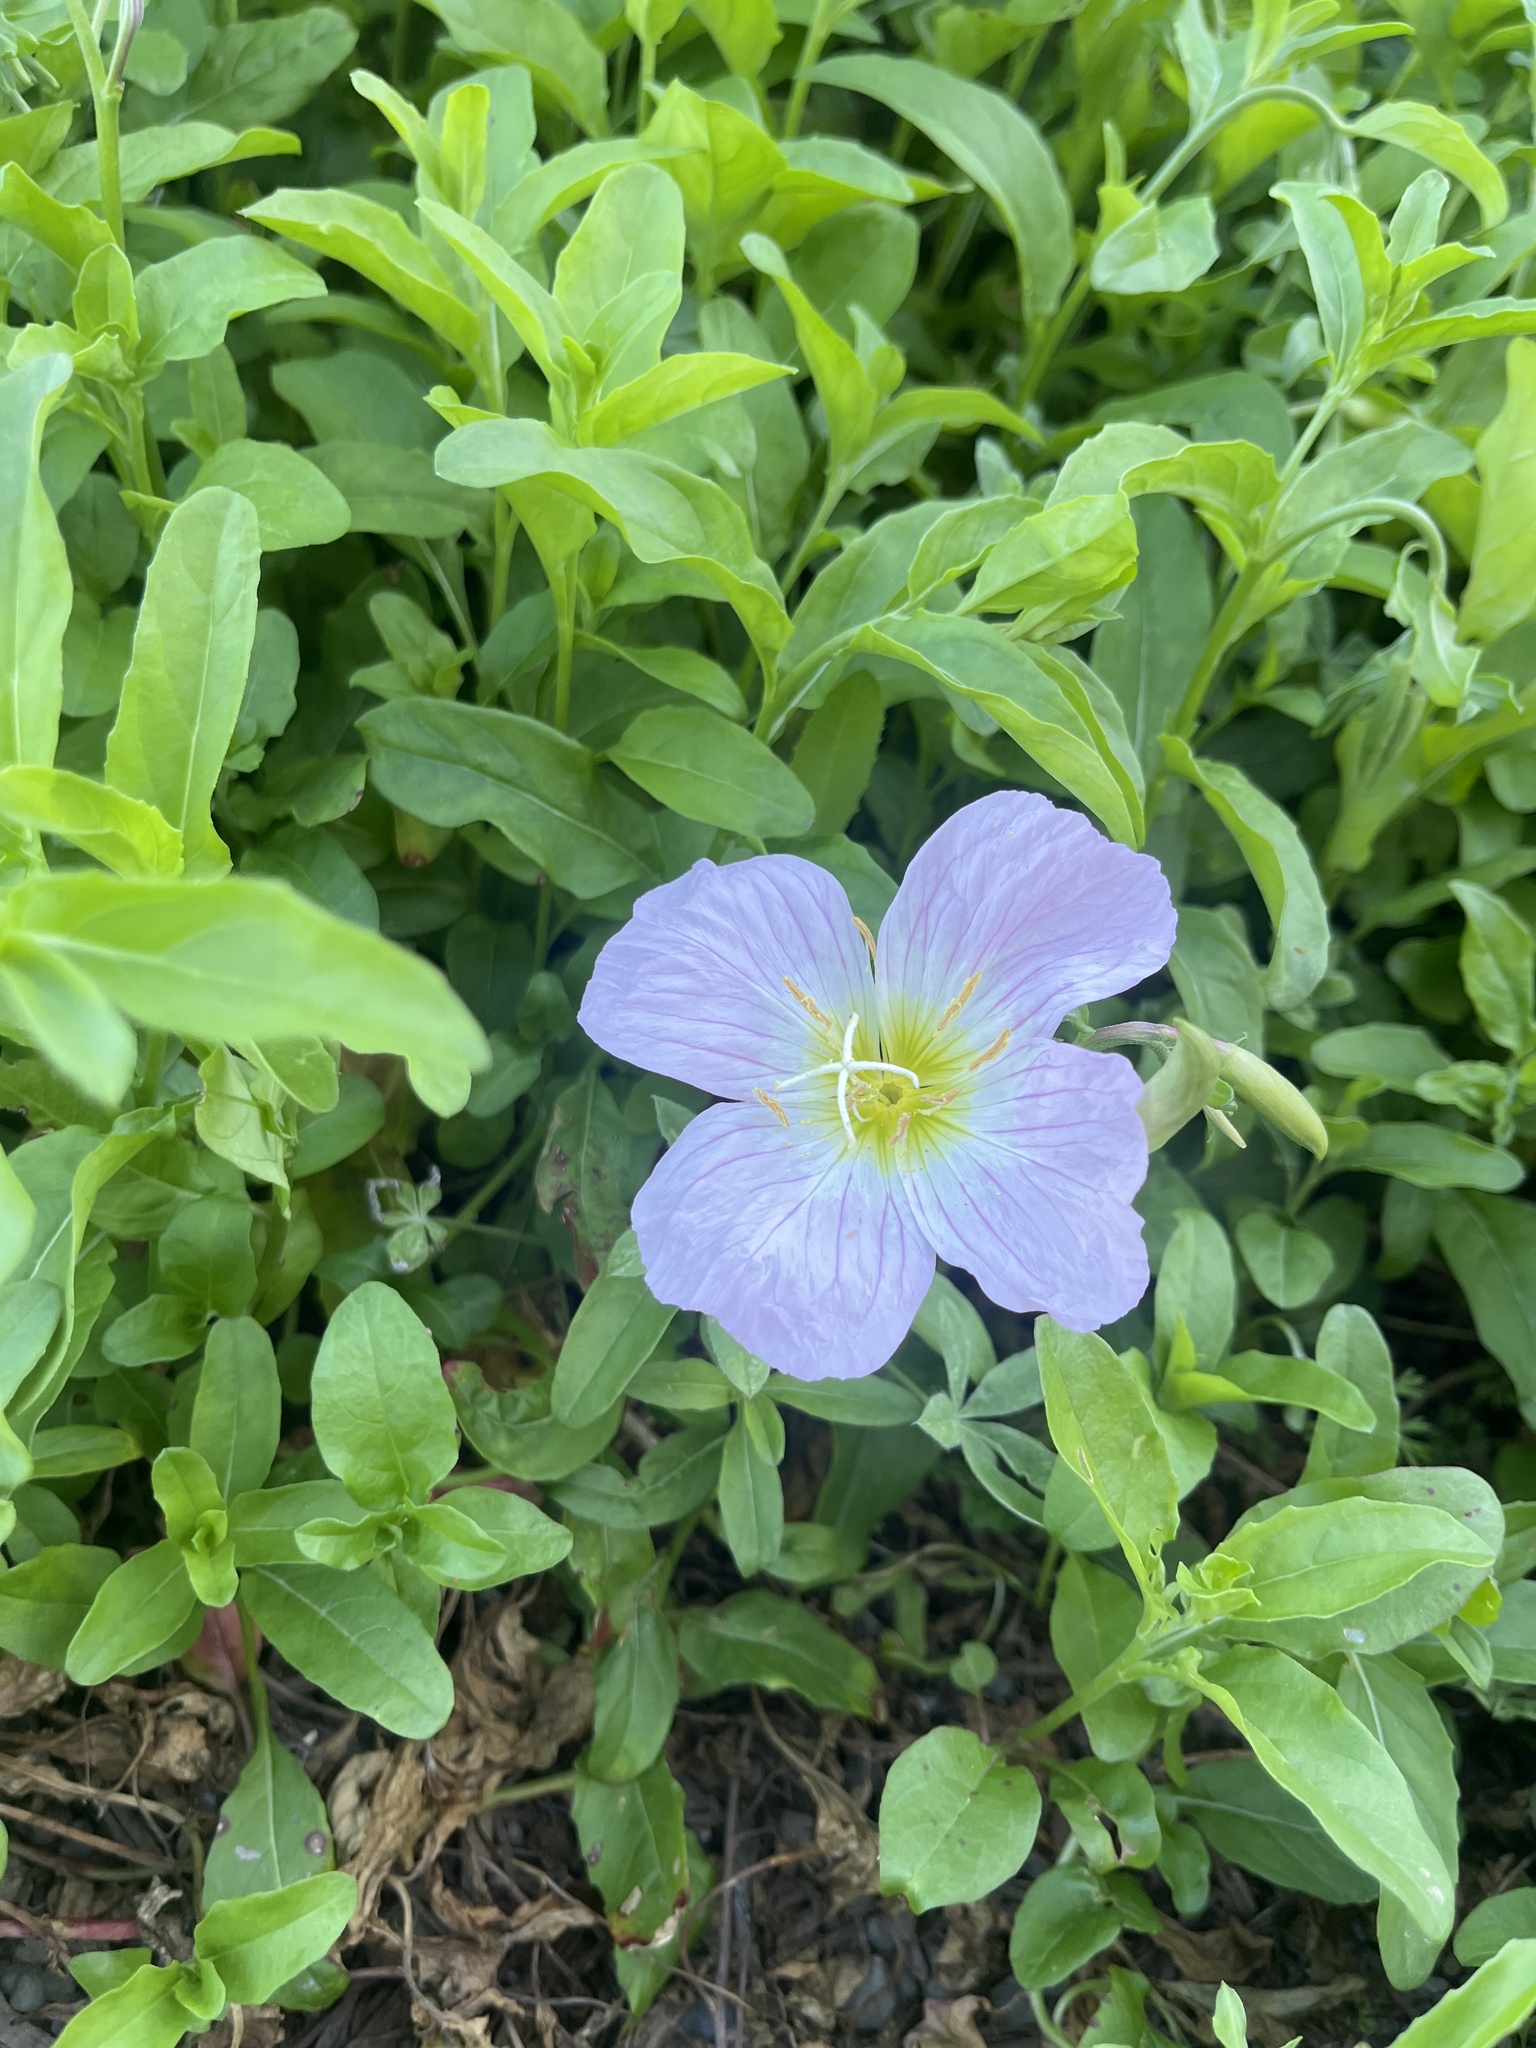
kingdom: Plantae
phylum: Tracheophyta
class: Magnoliopsida
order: Myrtales
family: Onagraceae
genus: Oenothera
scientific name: Oenothera speciosa
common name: White evening-primrose
